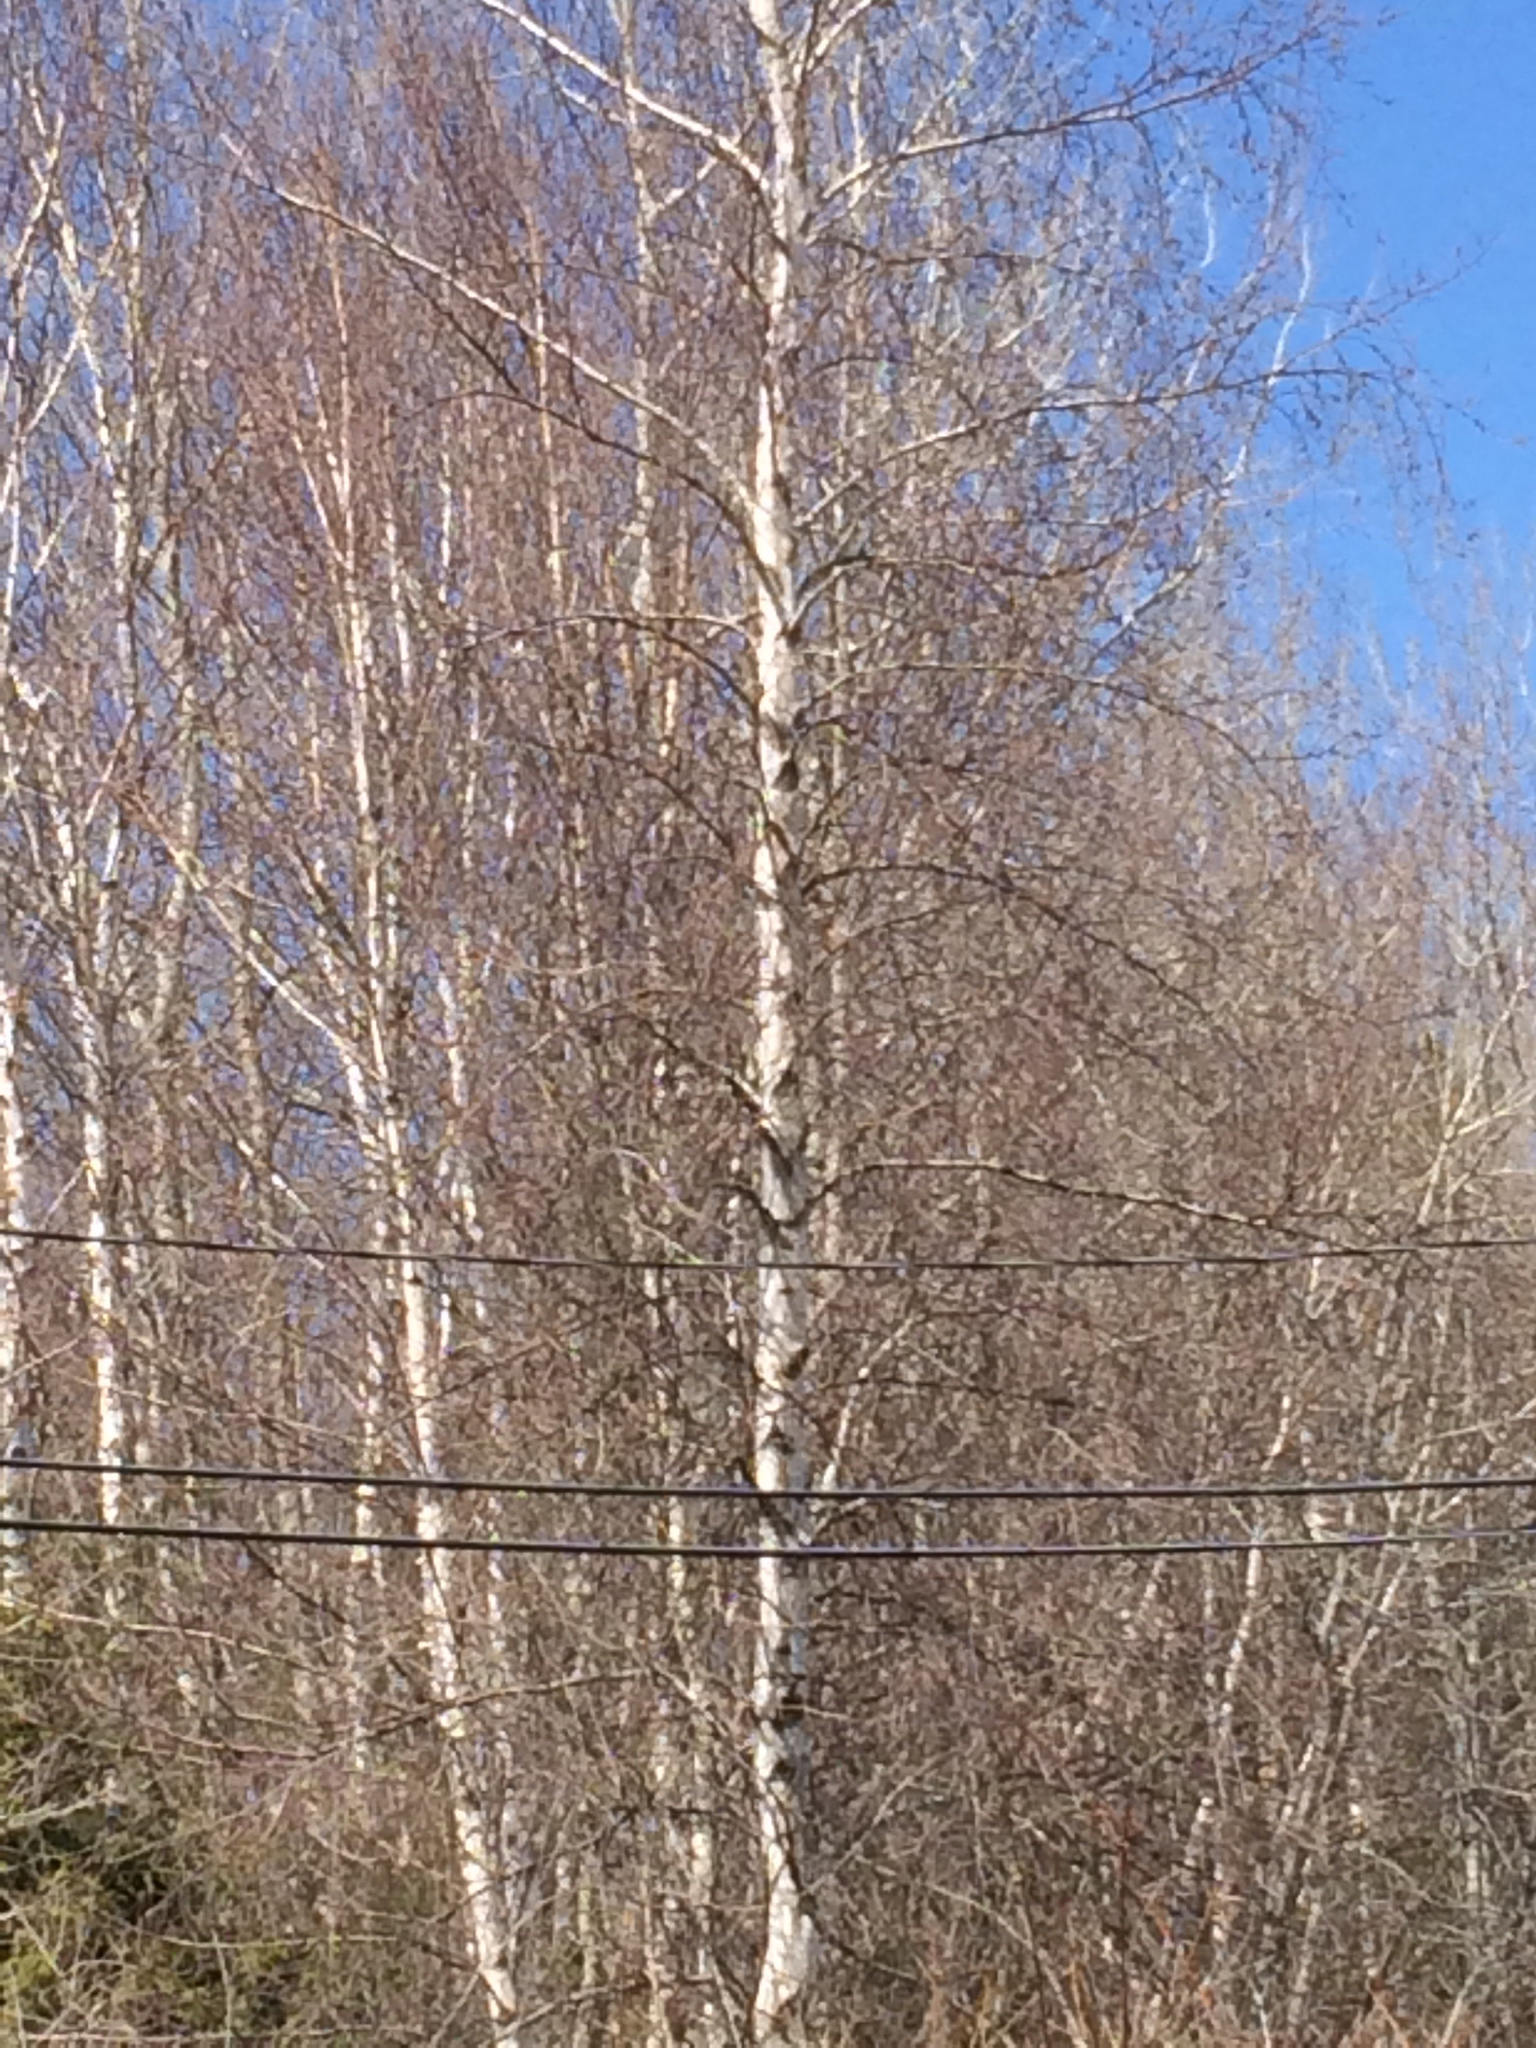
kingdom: Plantae
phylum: Tracheophyta
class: Magnoliopsida
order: Fagales
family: Betulaceae
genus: Betula
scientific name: Betula populifolia
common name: Fire birch
